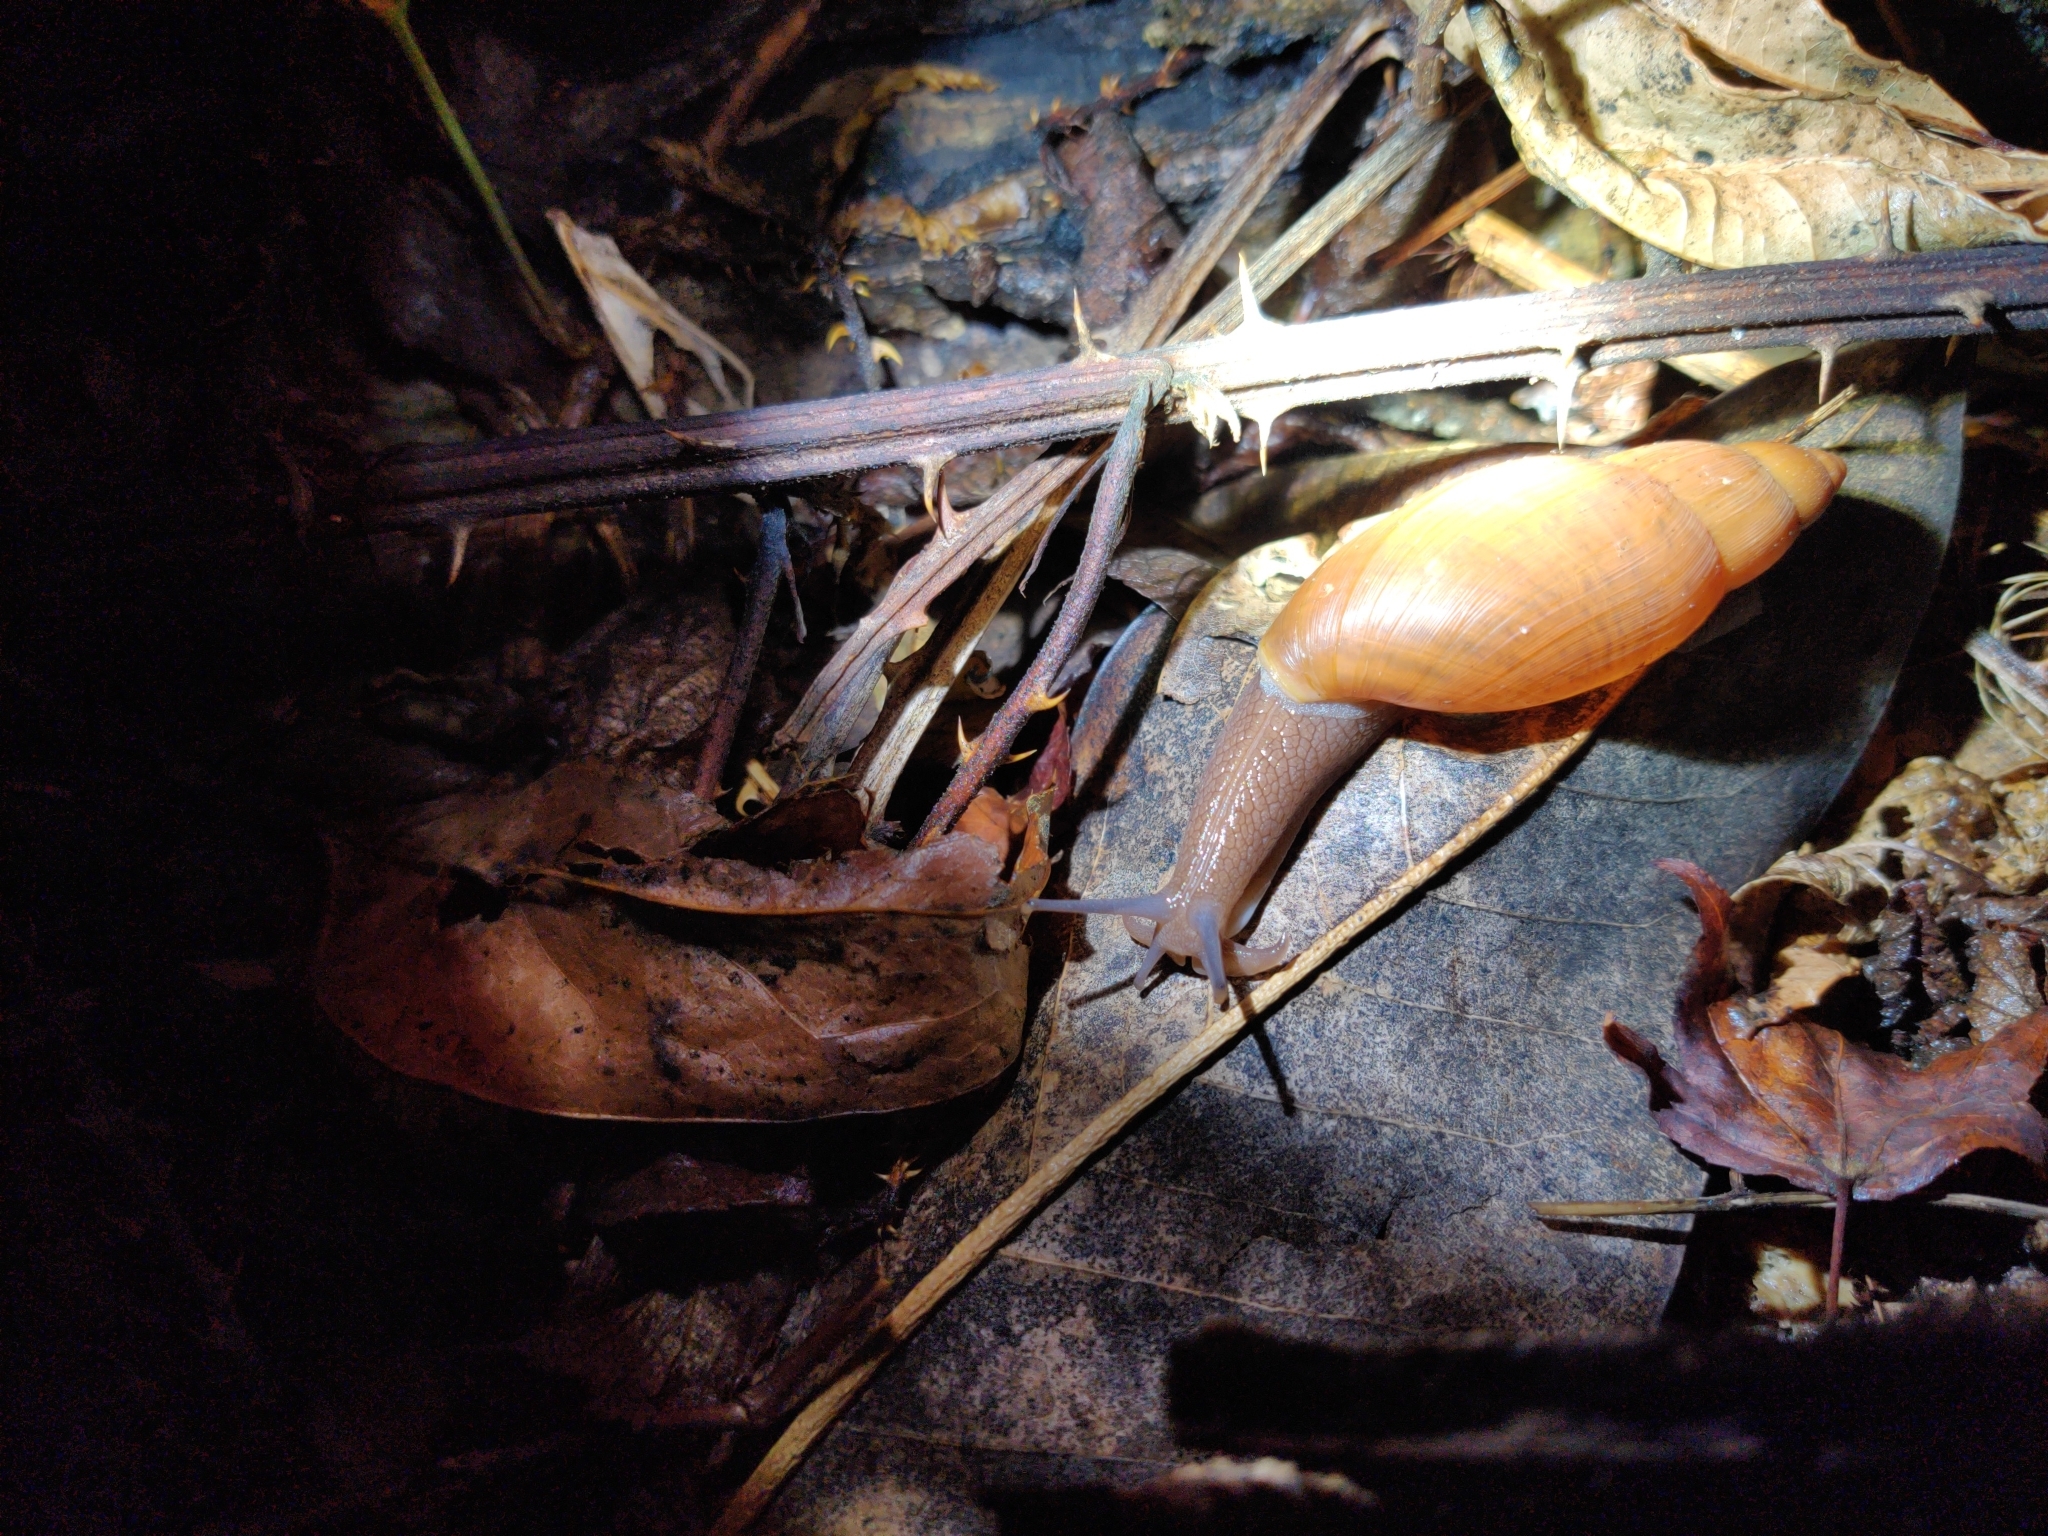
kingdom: Animalia
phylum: Mollusca
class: Gastropoda
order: Stylommatophora
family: Spiraxidae
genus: Euglandina
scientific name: Euglandina rosea
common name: Rosy wolfsnail
